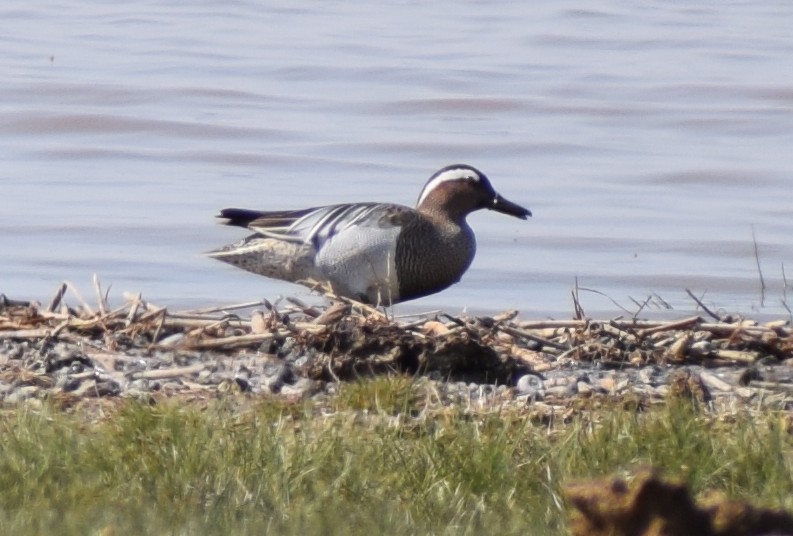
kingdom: Animalia
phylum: Chordata
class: Aves
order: Anseriformes
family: Anatidae
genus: Spatula
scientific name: Spatula querquedula
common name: Garganey
